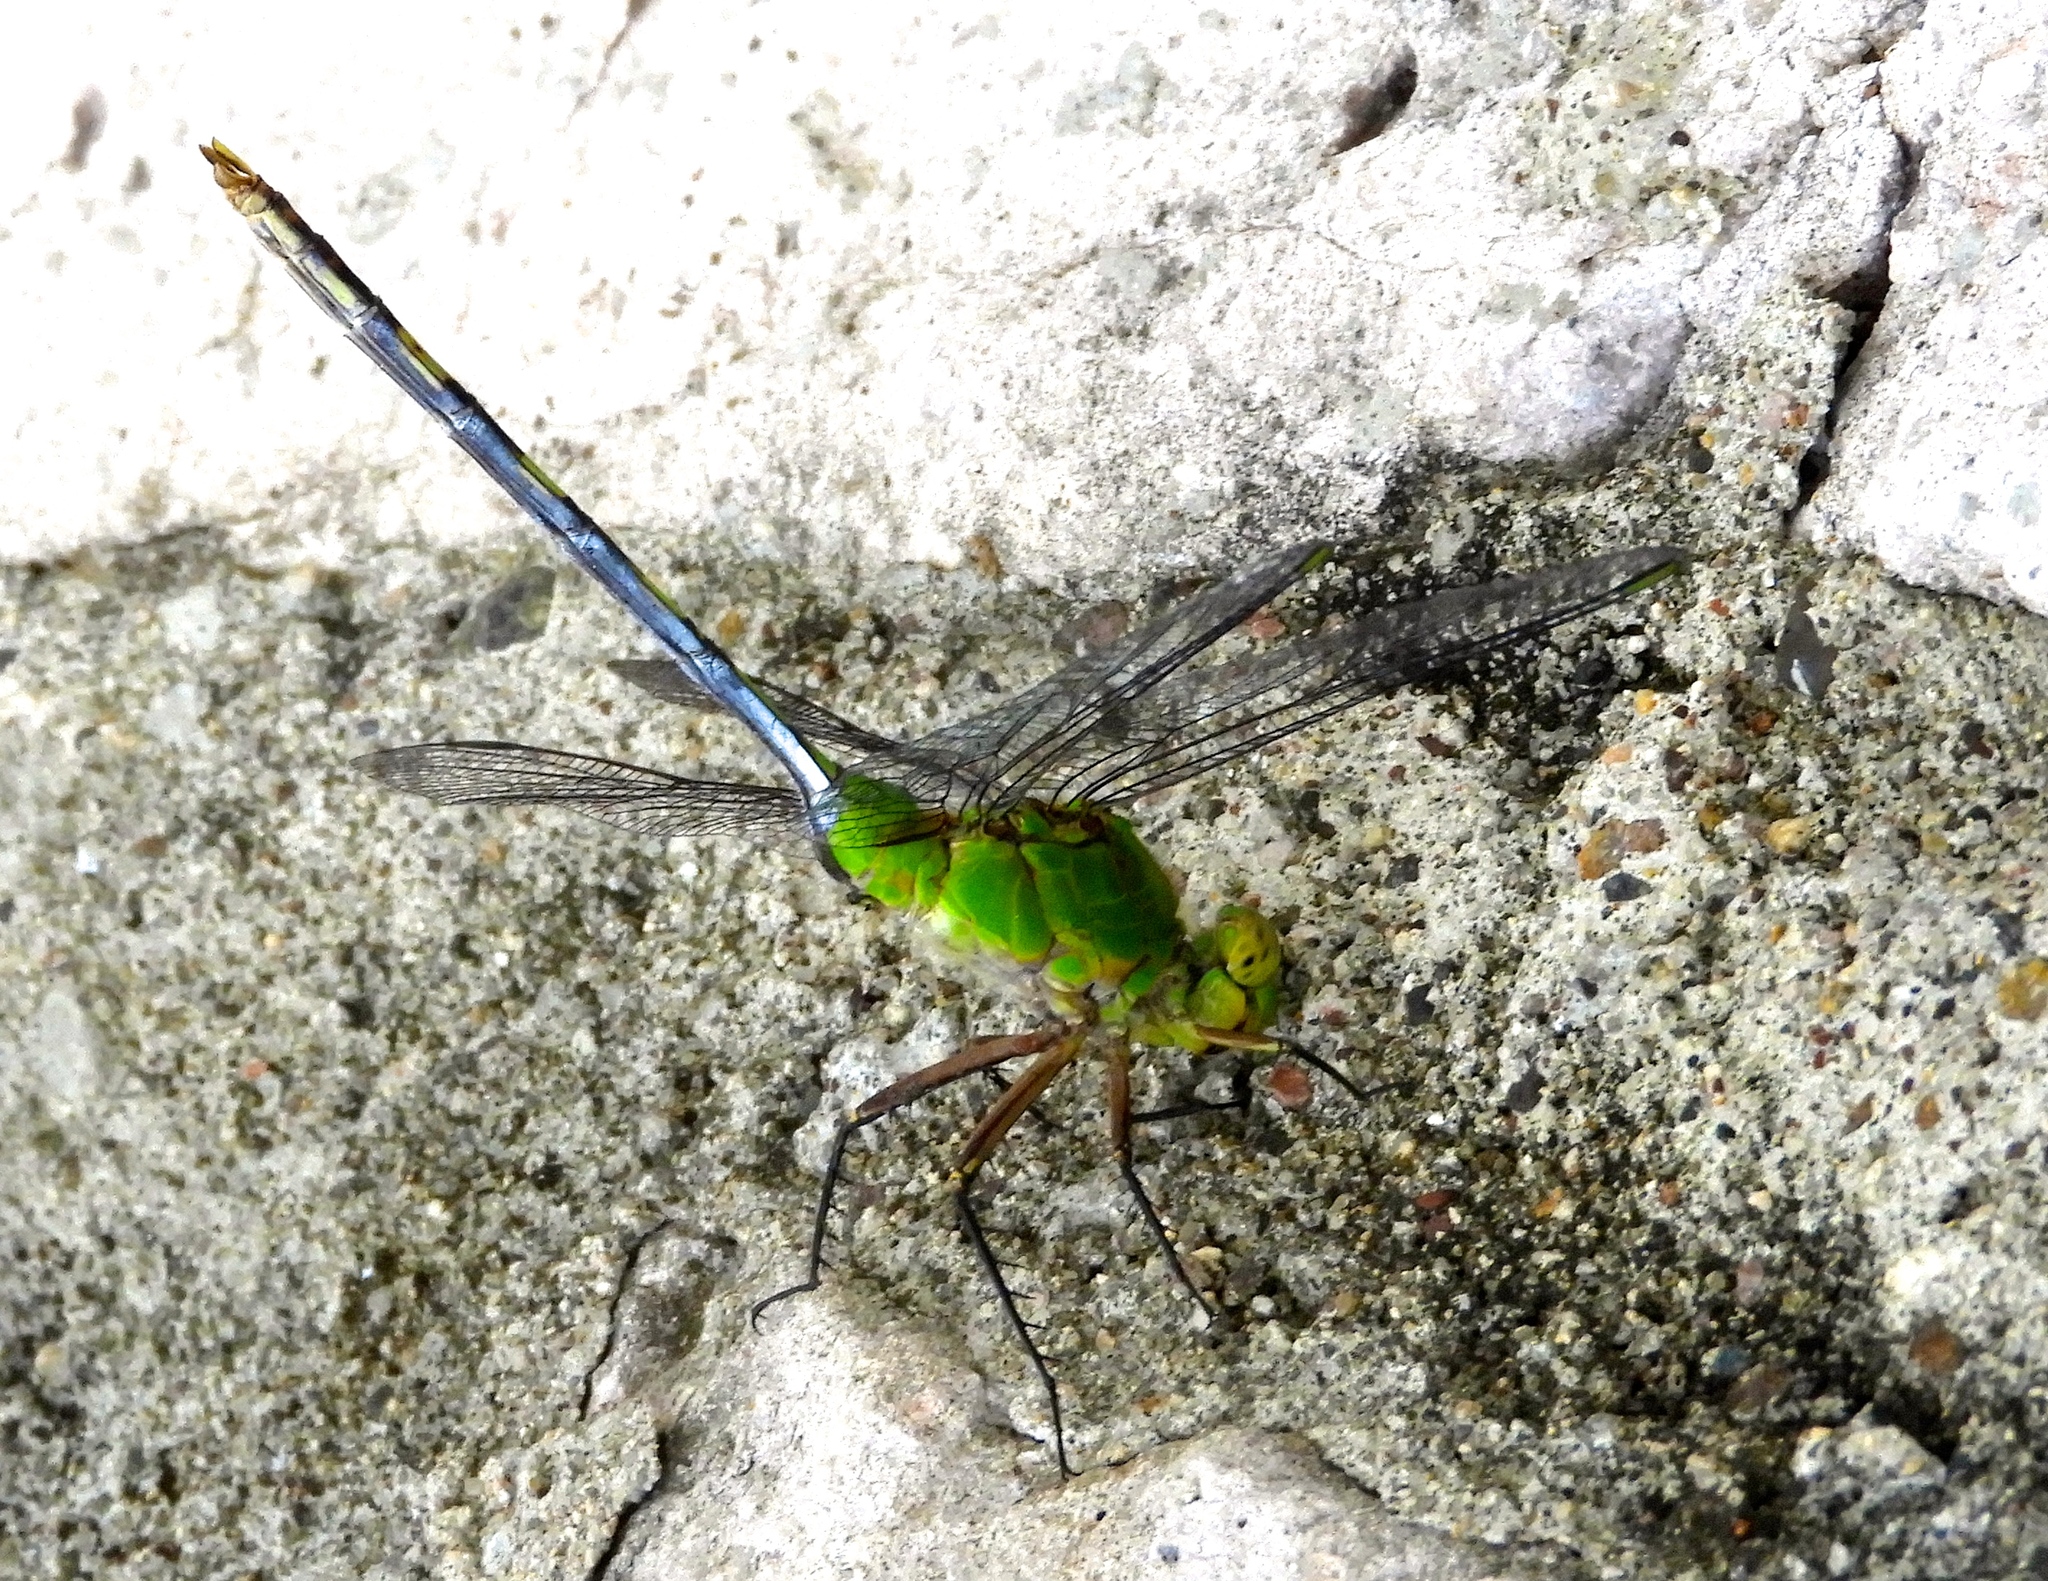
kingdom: Animalia
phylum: Arthropoda
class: Insecta
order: Odonata
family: Libellulidae
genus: Erythemis
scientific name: Erythemis vesiculosa
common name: Great pondhawk
